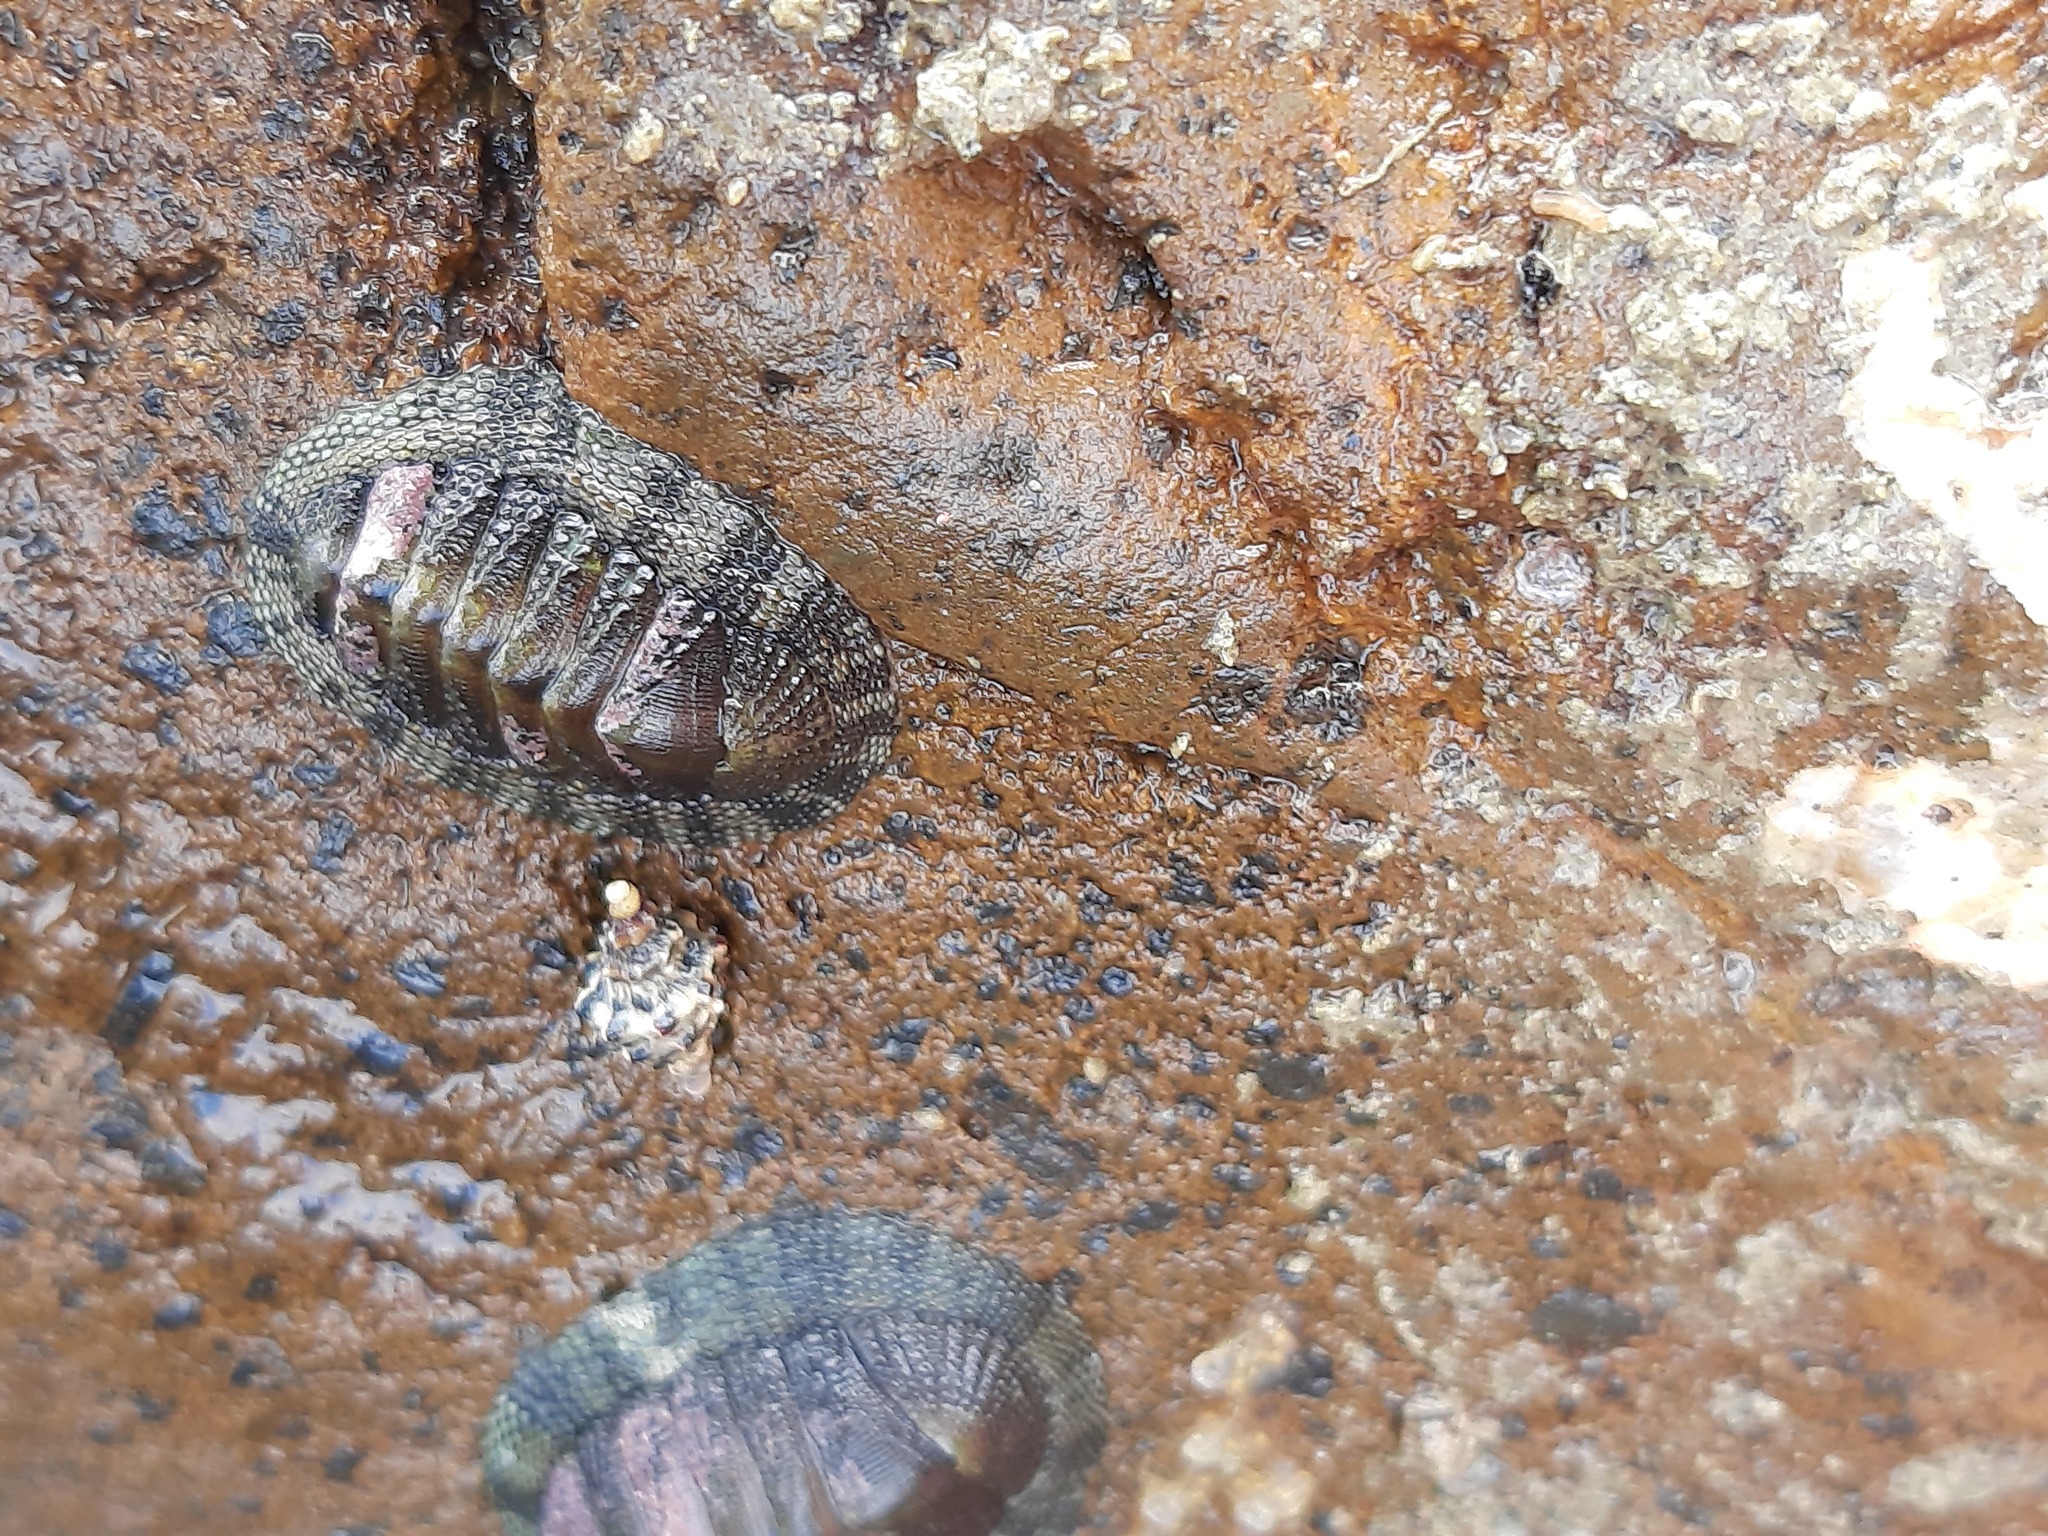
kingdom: Animalia
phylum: Mollusca
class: Polyplacophora
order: Chitonida
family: Chitonidae
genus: Sypharochiton
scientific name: Sypharochiton pelliserpentis
